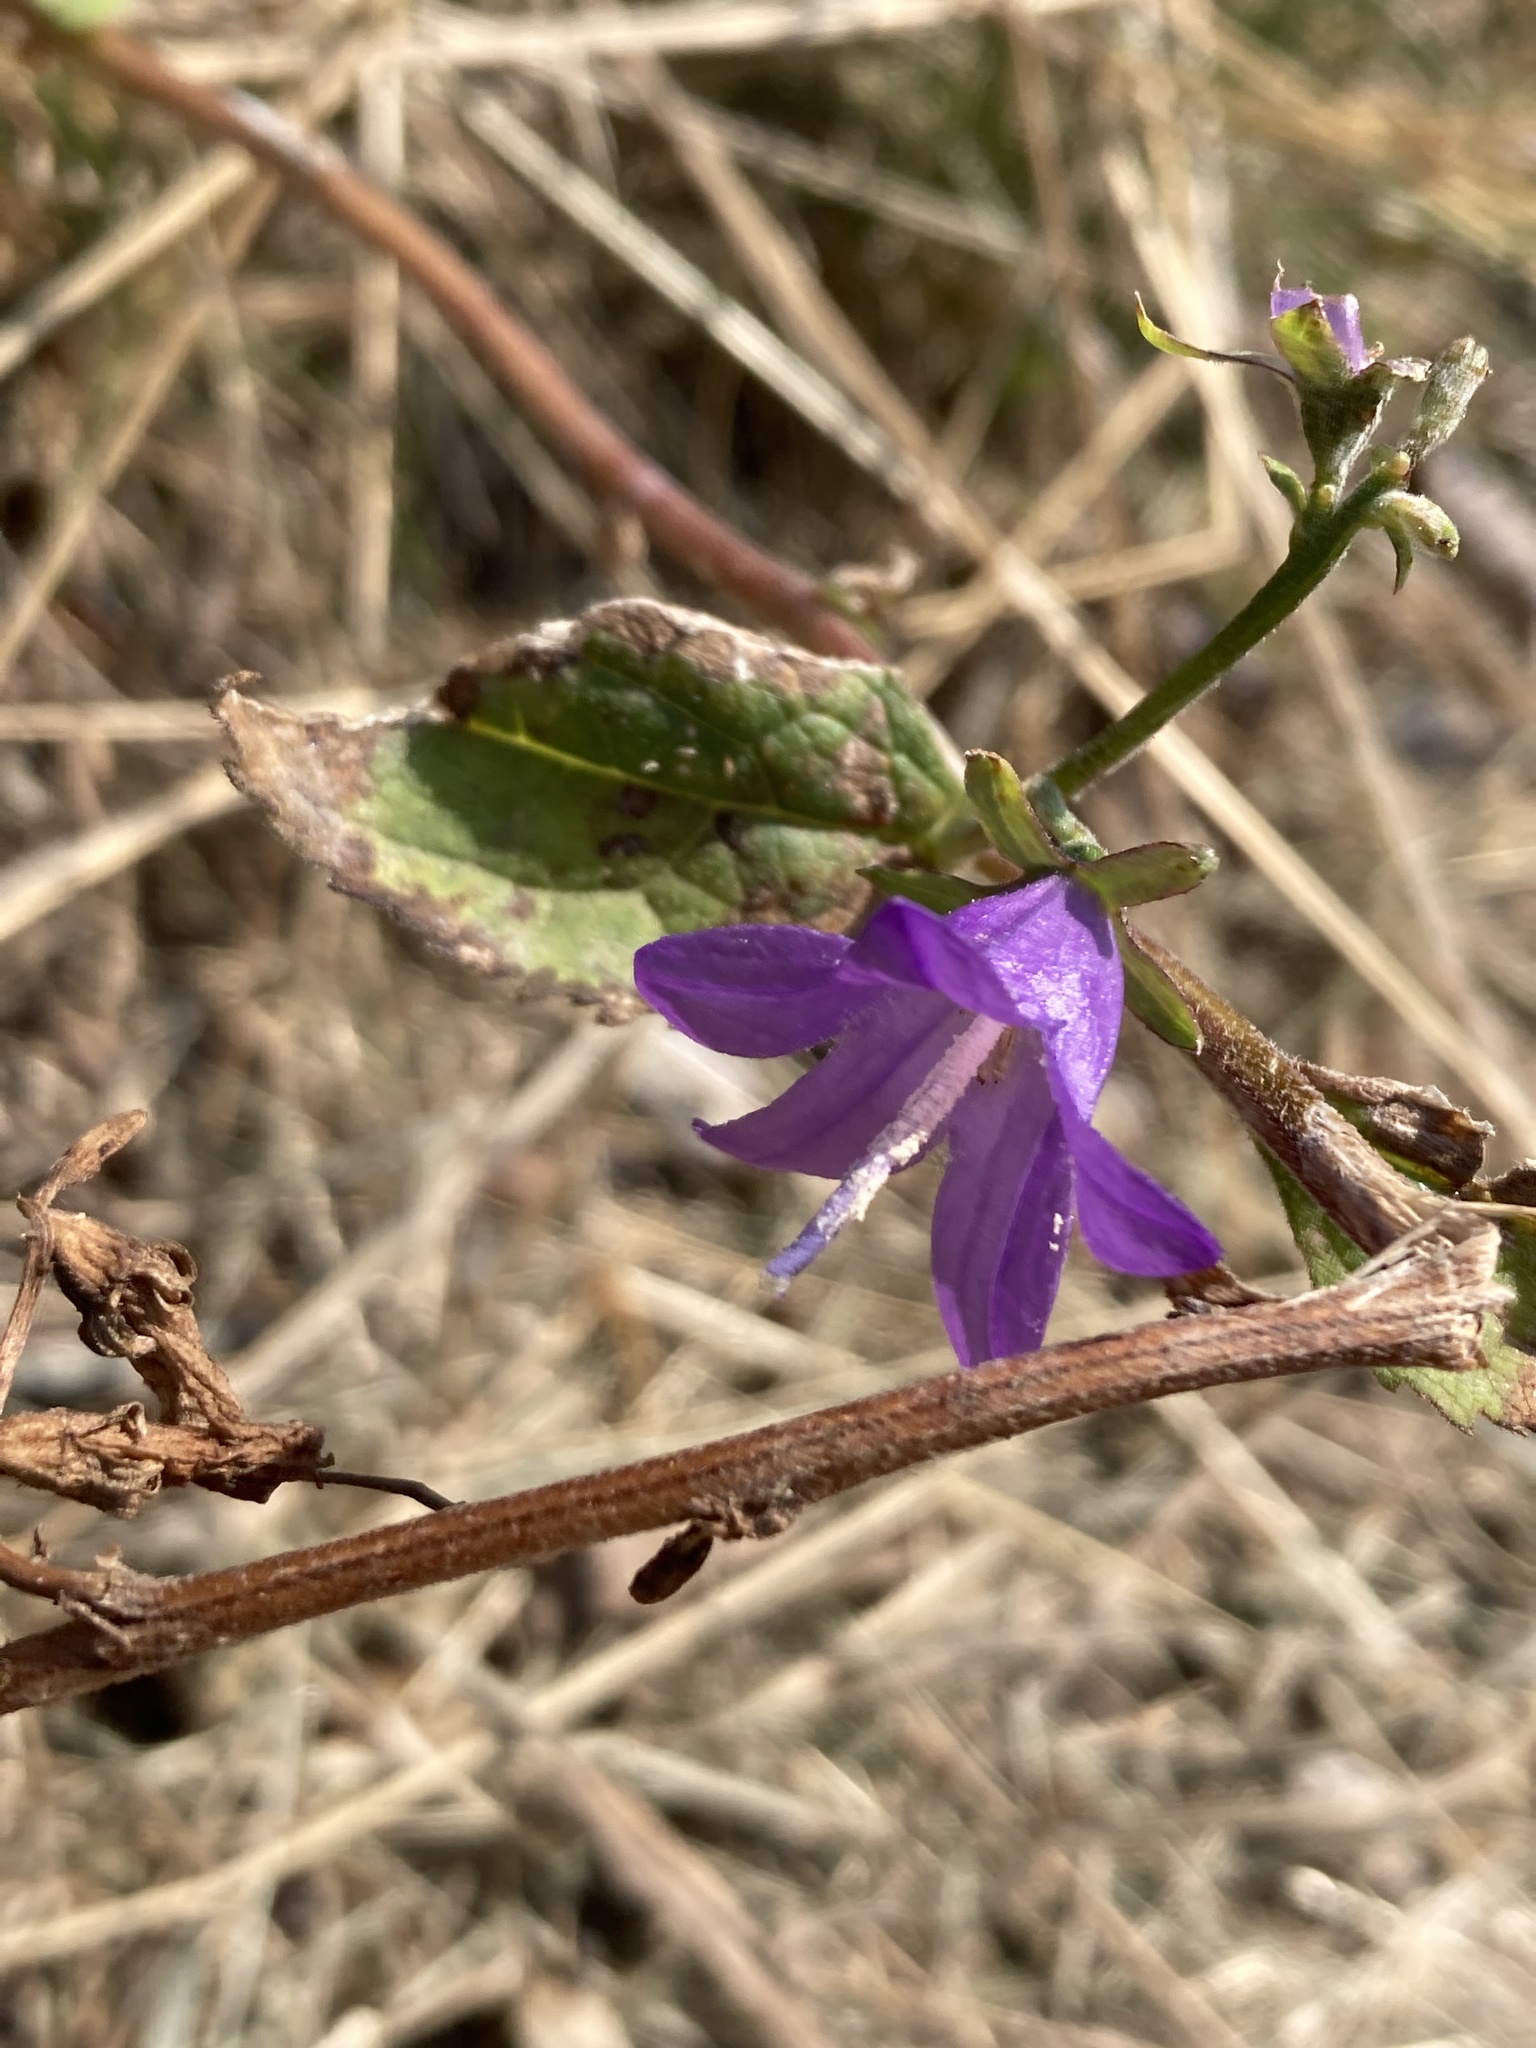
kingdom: Plantae
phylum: Tracheophyta
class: Magnoliopsida
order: Asterales
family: Campanulaceae
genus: Campanula
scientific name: Campanula rapunculoides
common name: Creeping bellflower
